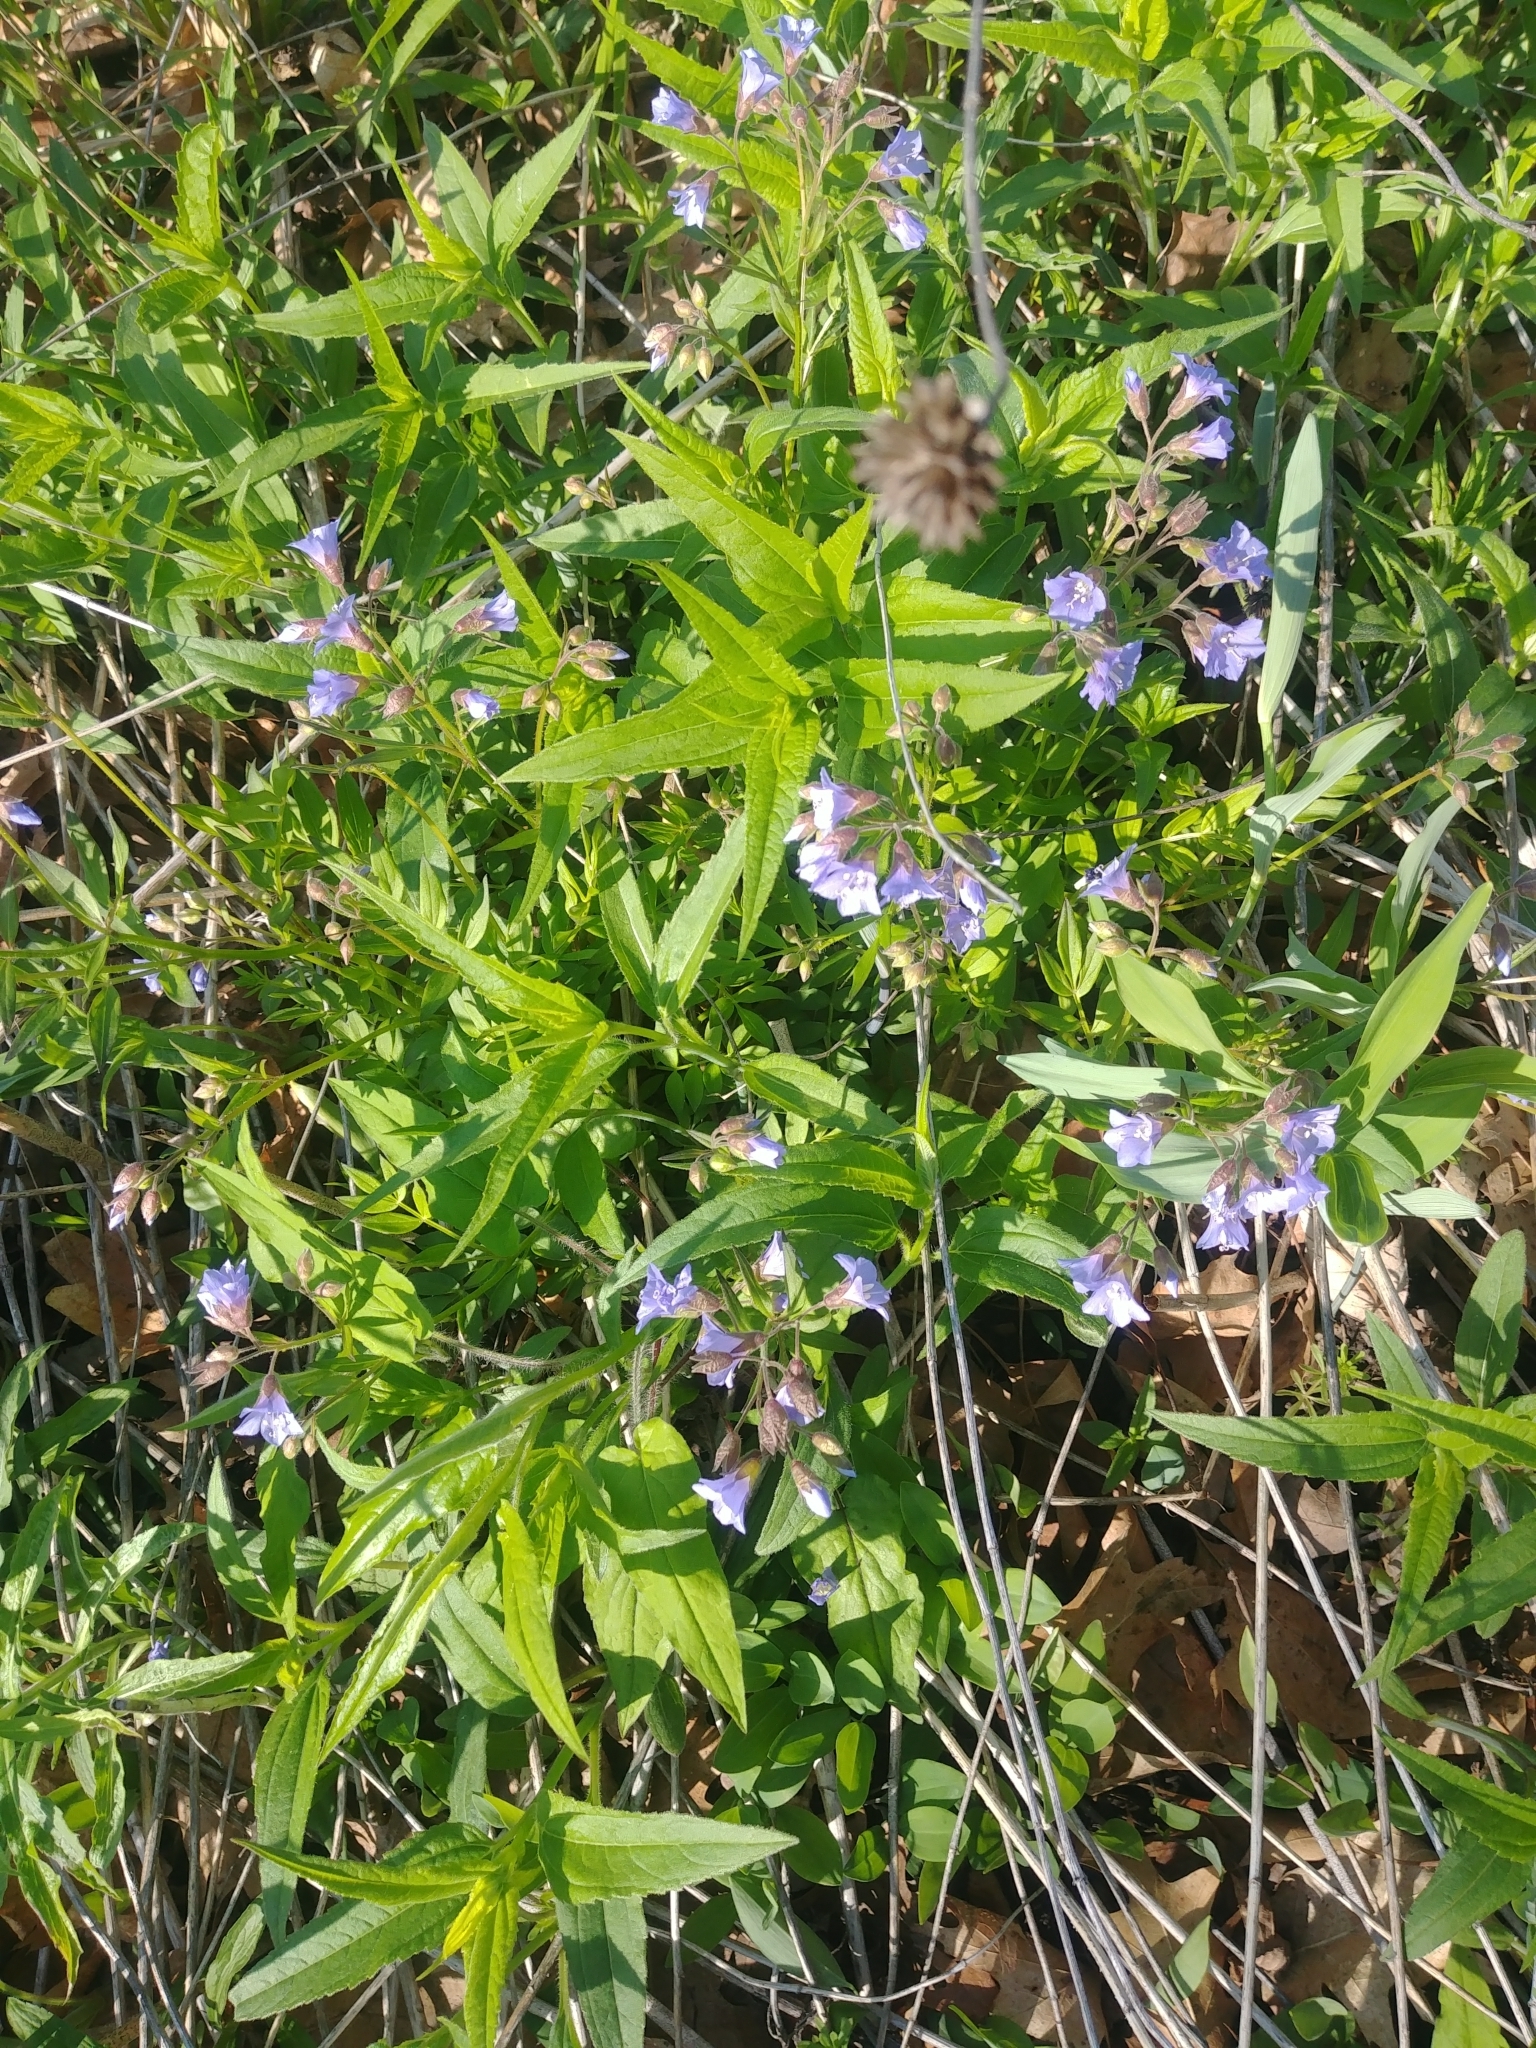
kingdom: Plantae
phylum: Tracheophyta
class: Magnoliopsida
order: Ericales
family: Polemoniaceae
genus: Polemonium
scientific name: Polemonium reptans
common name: Creeping jacob's-ladder
